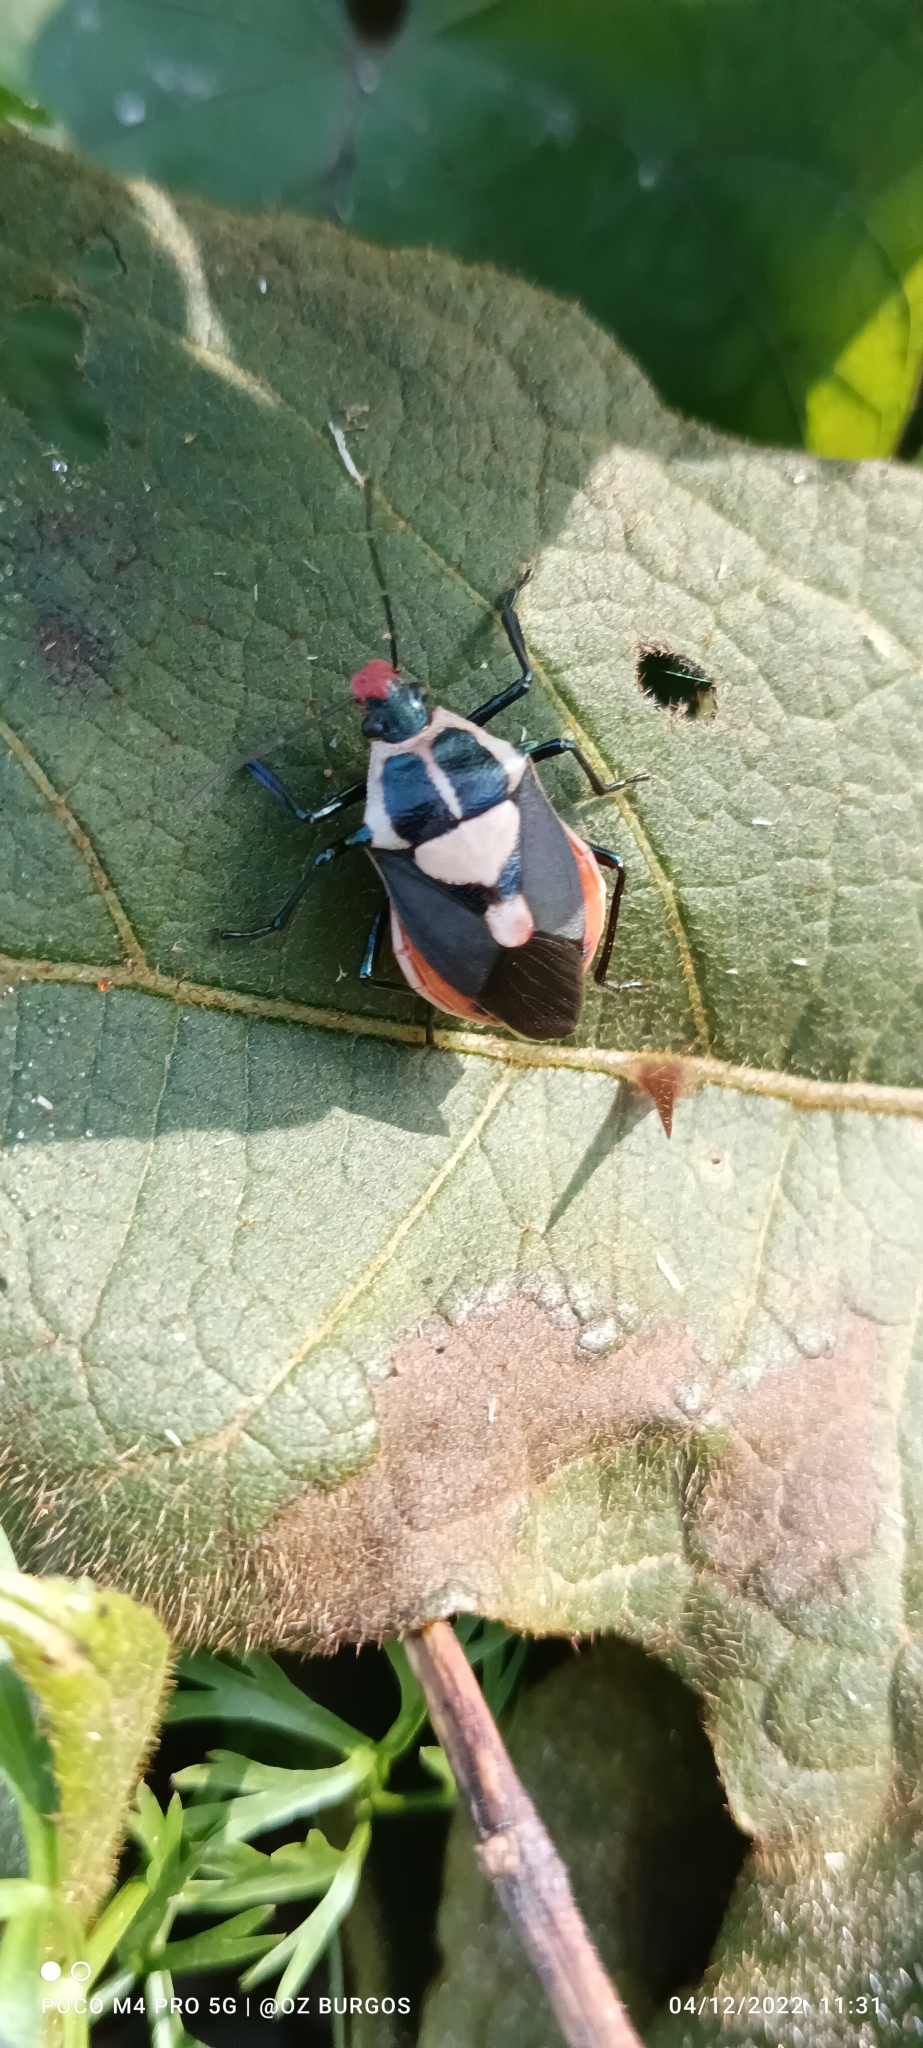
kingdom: Animalia
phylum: Arthropoda
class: Insecta
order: Hemiptera
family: Pentatomidae
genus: Euthyrhynchus
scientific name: Euthyrhynchus floridanus
